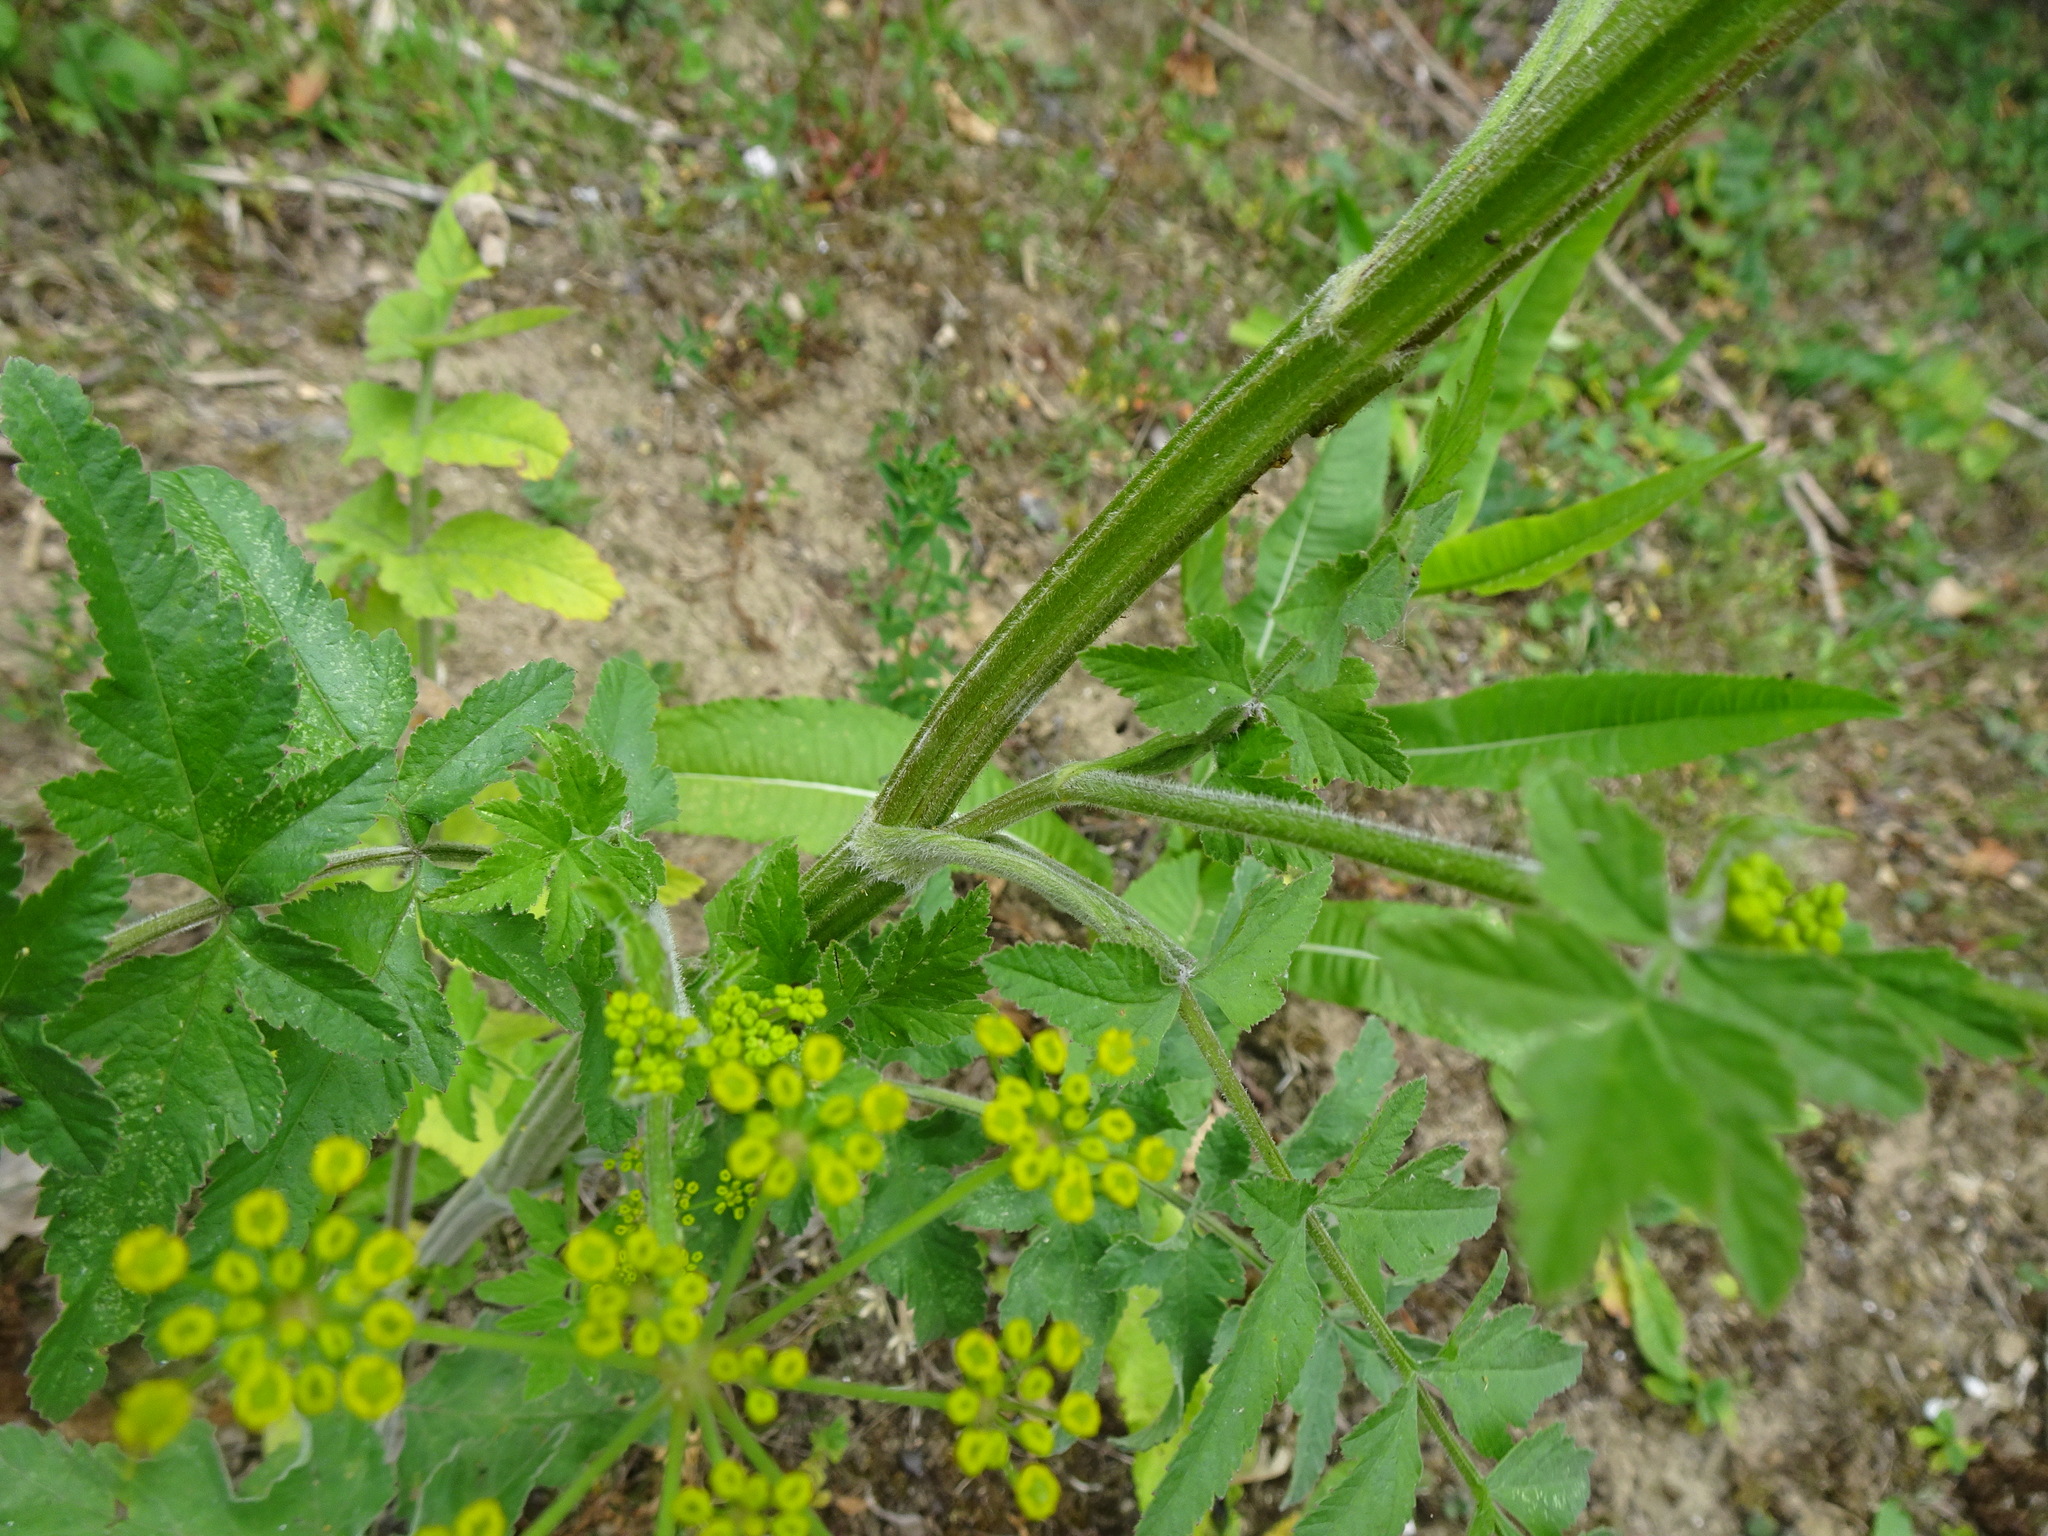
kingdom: Plantae
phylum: Tracheophyta
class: Magnoliopsida
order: Apiales
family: Apiaceae
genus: Pastinaca
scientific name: Pastinaca sativa
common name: Wild parsnip
